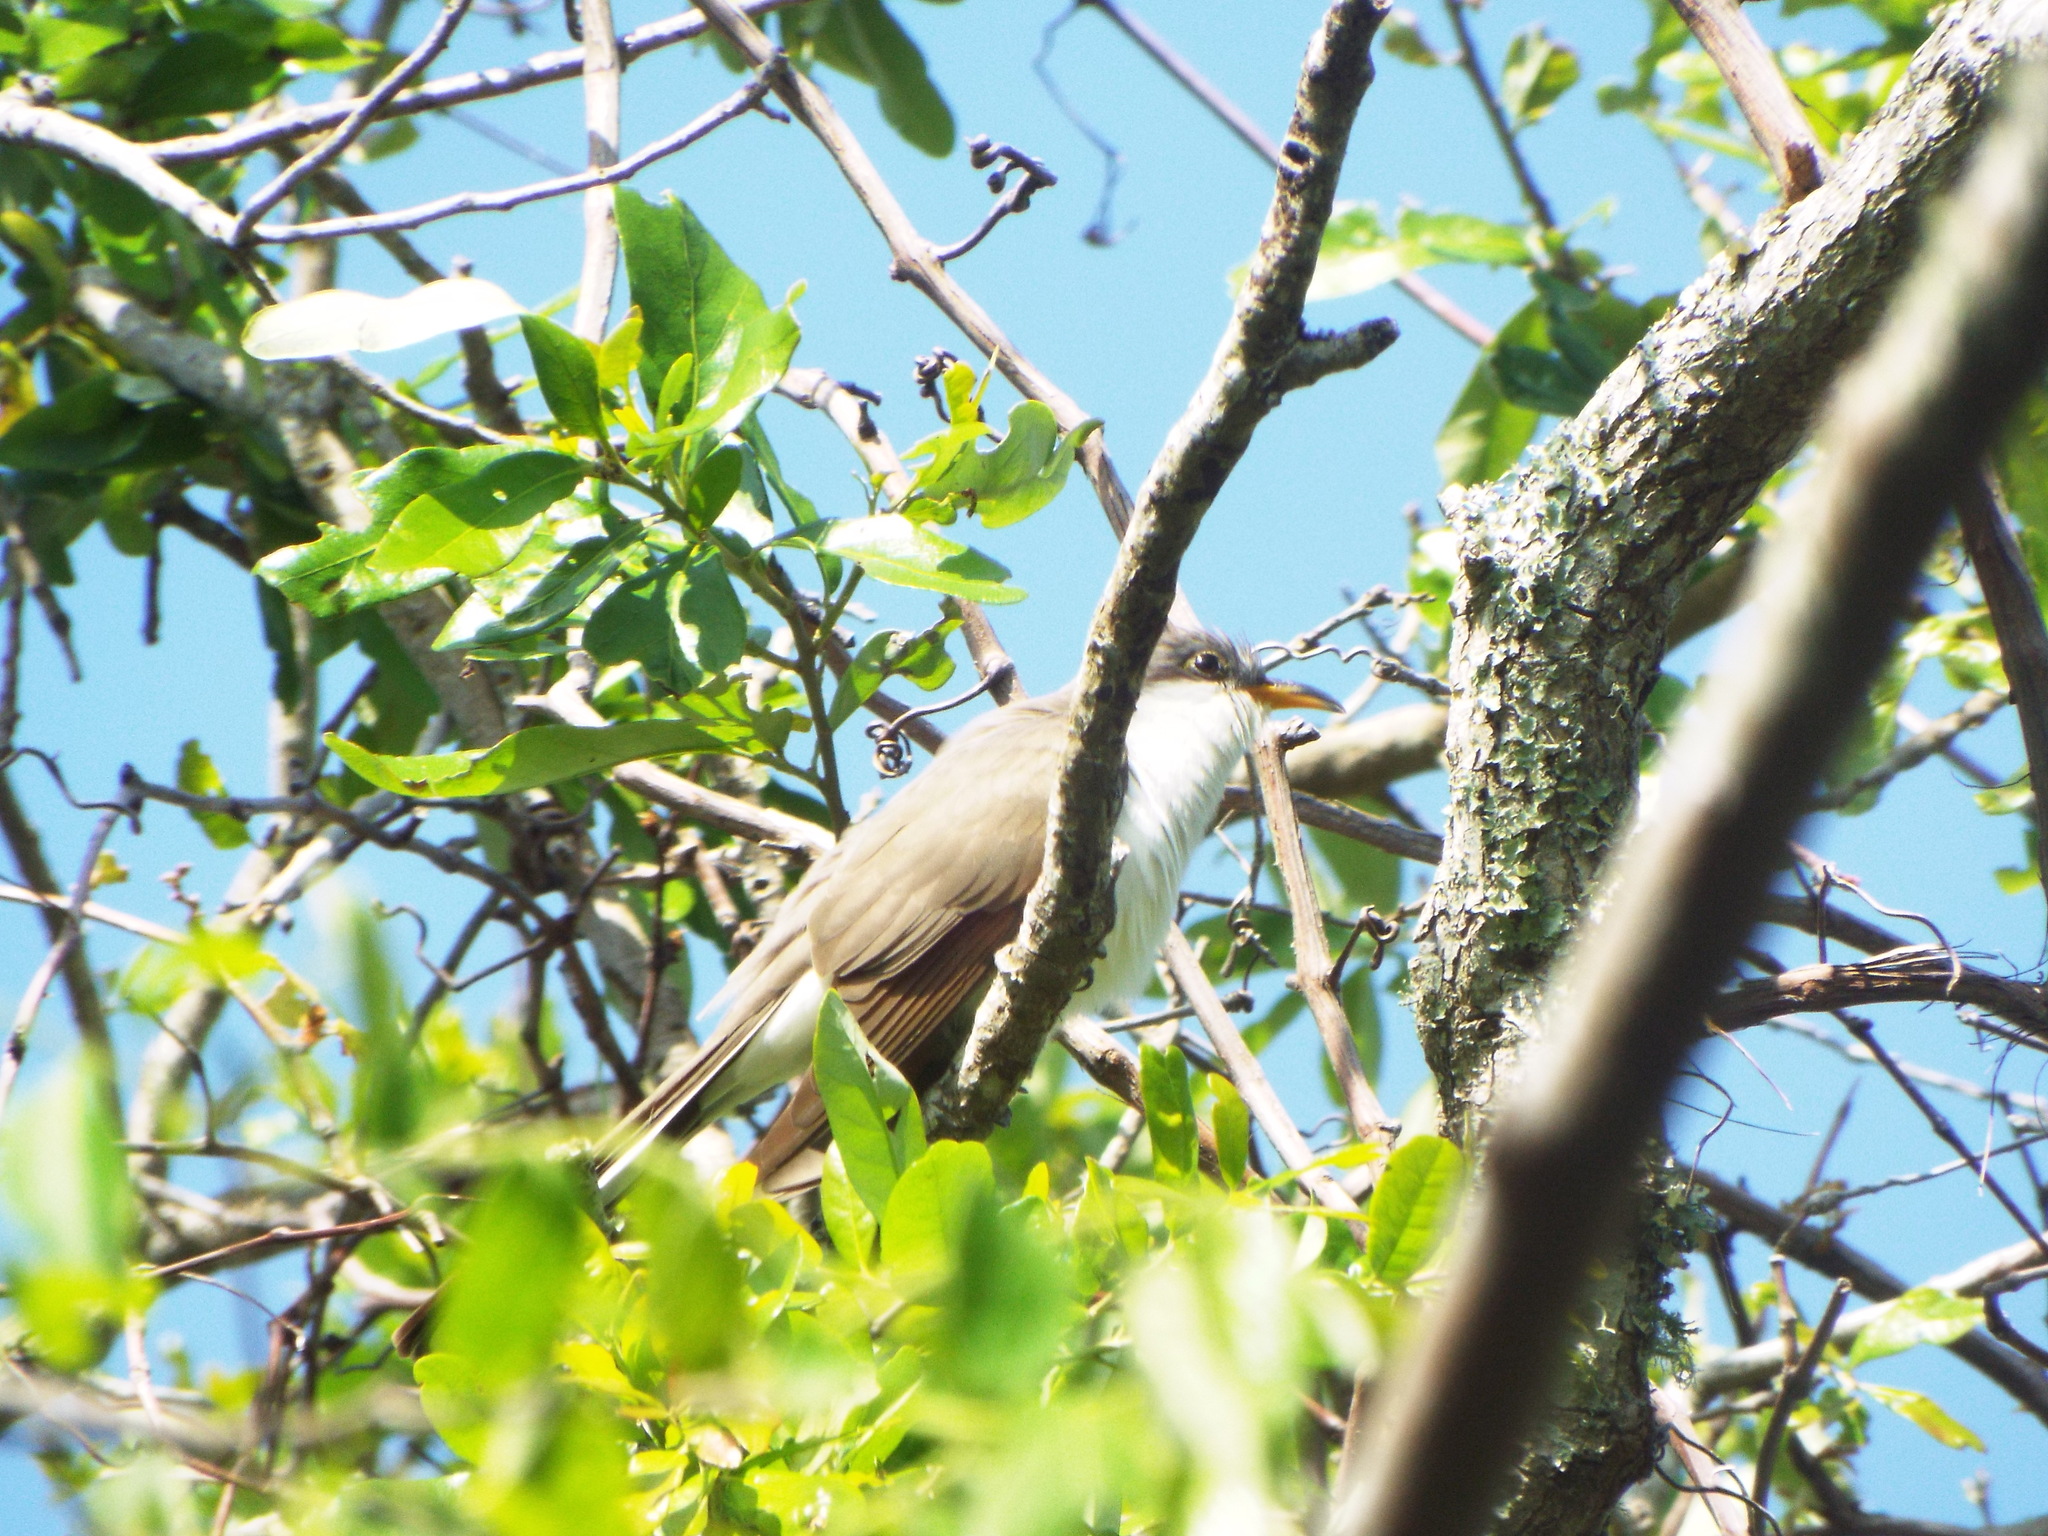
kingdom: Animalia
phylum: Chordata
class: Aves
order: Cuculiformes
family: Cuculidae
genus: Coccyzus
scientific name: Coccyzus americanus
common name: Yellow-billed cuckoo
